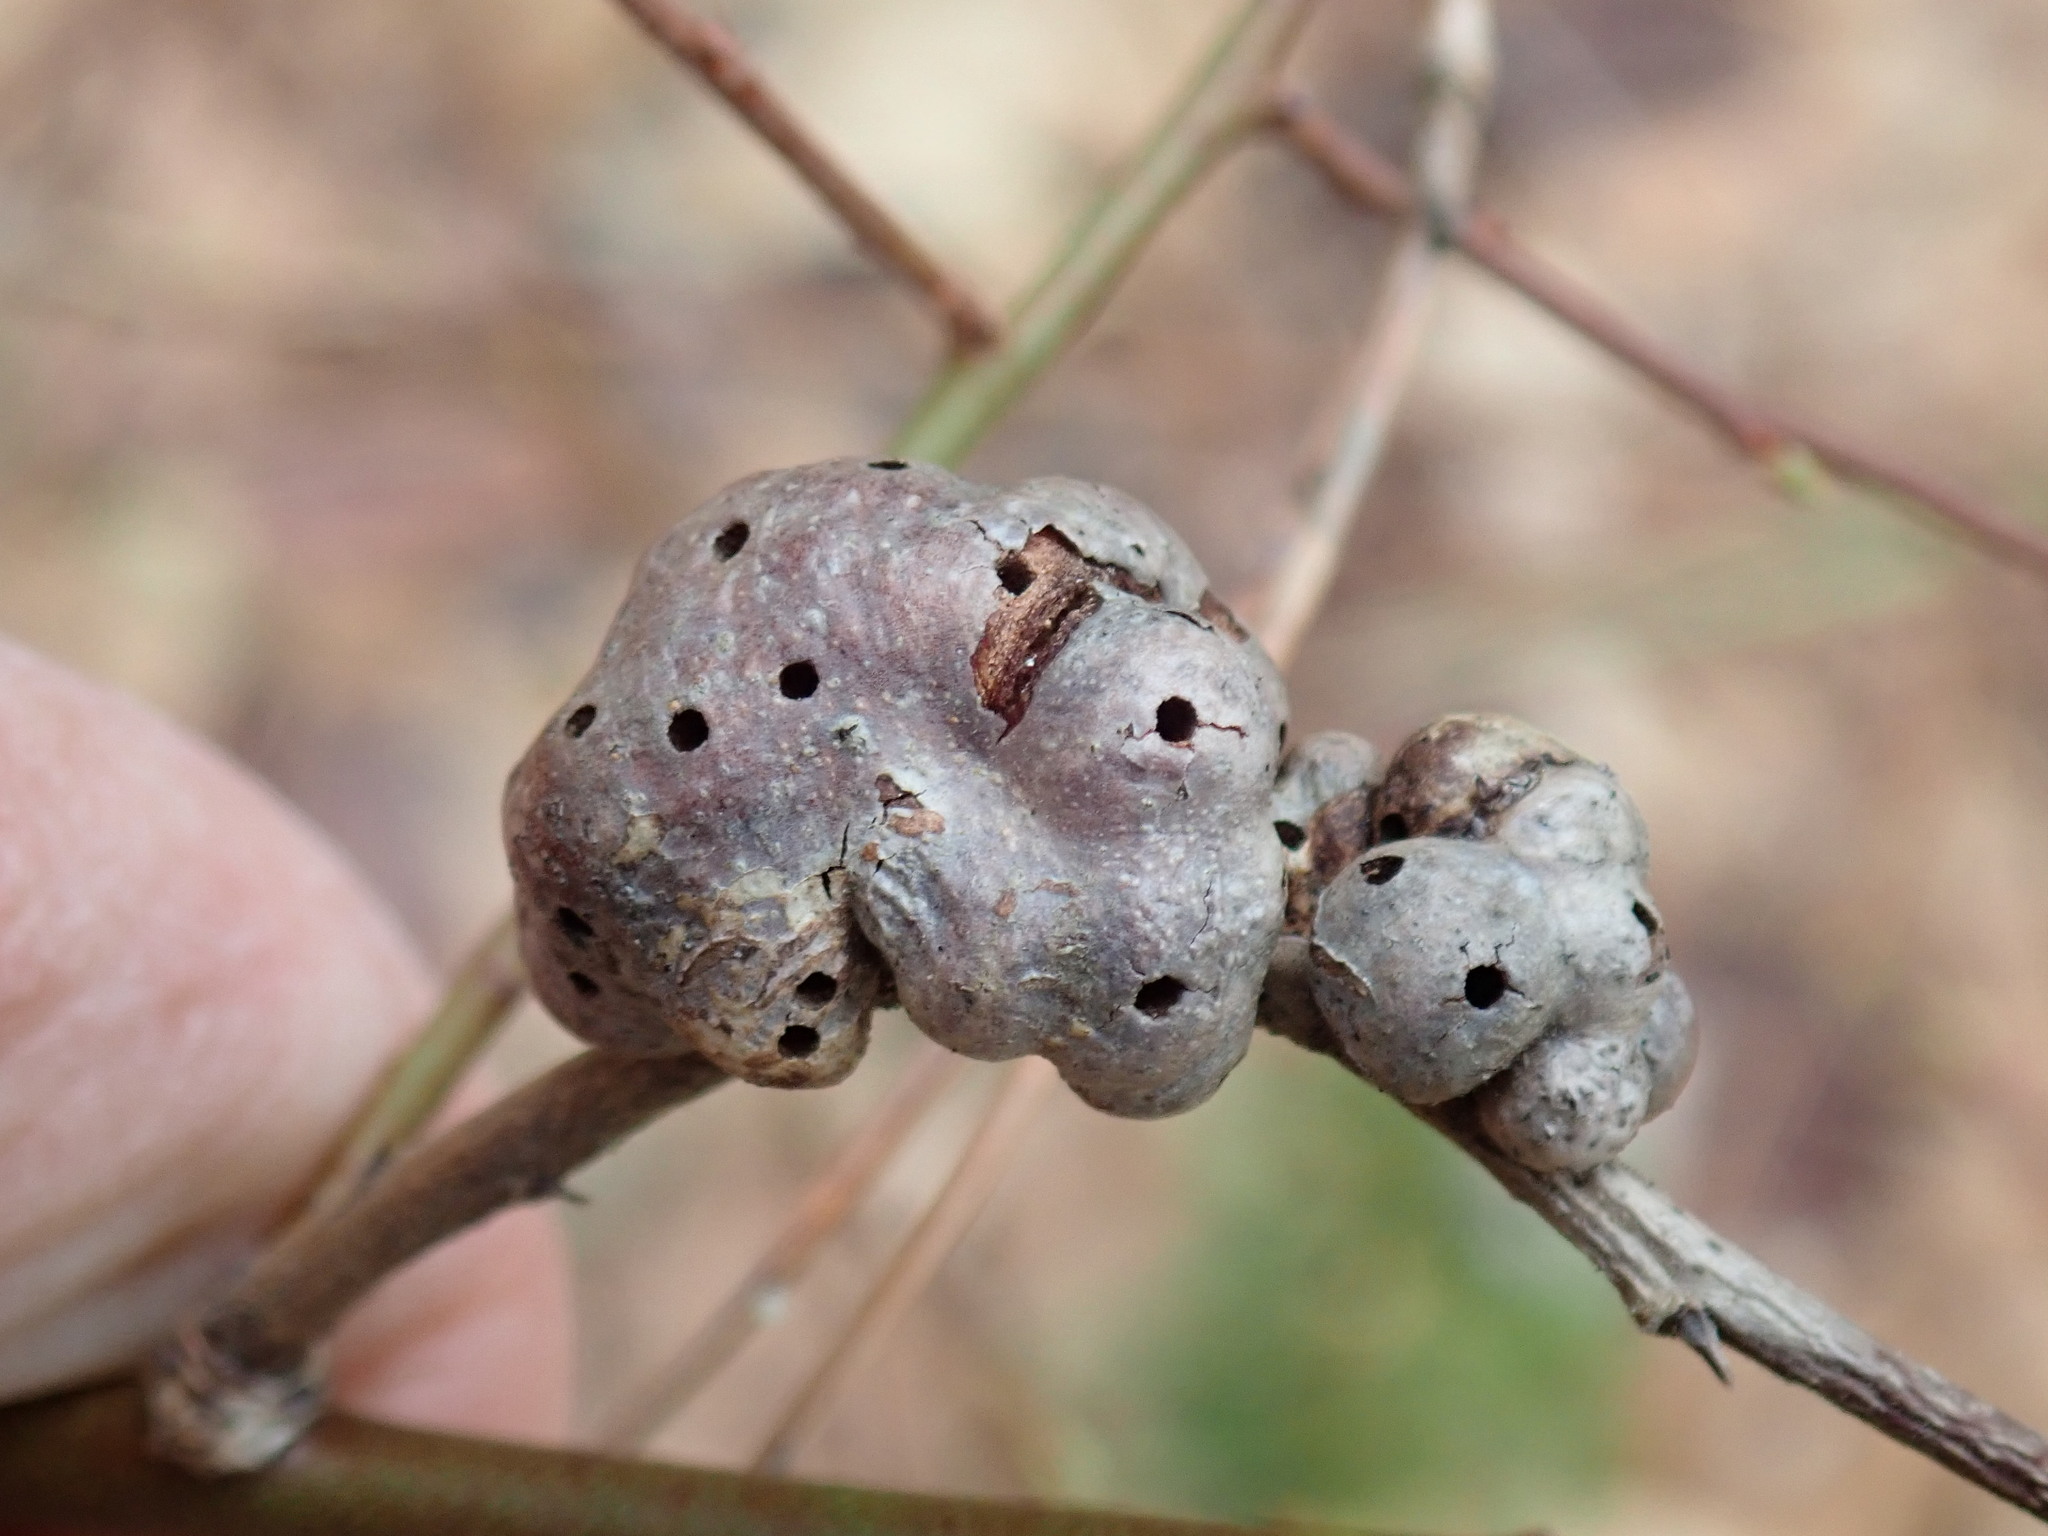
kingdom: Animalia
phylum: Arthropoda
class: Insecta
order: Hymenoptera
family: Pteromalidae
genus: Hemadas
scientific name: Hemadas nubilipennis
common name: Blueberry stem gall wasp
